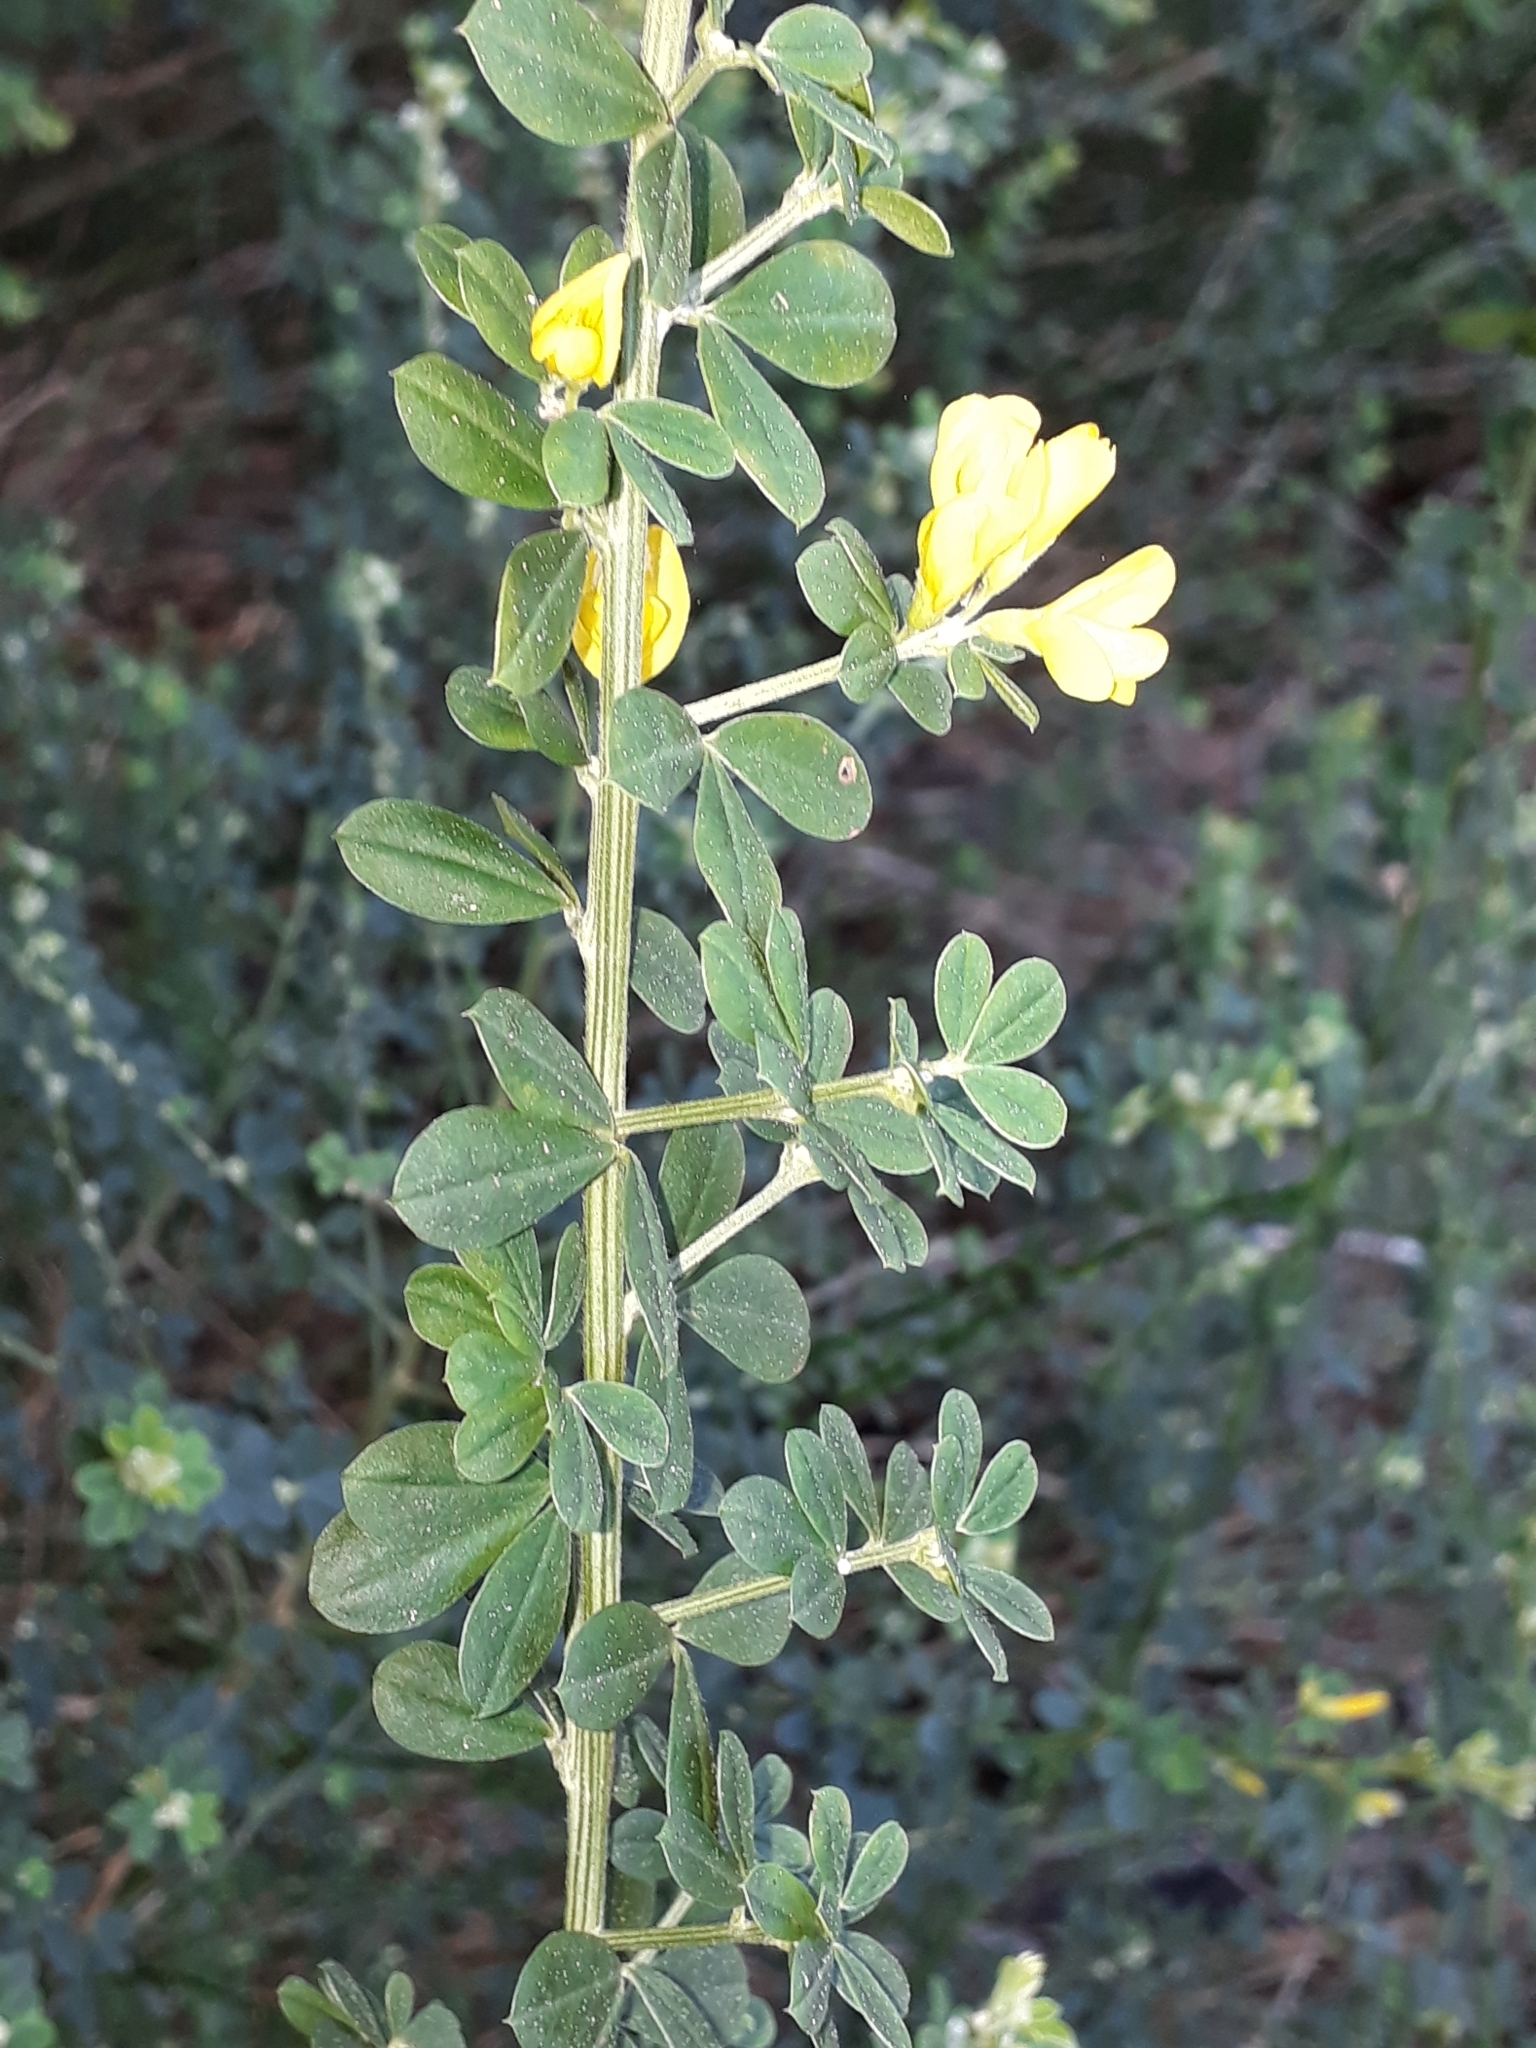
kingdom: Plantae
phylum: Tracheophyta
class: Magnoliopsida
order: Fabales
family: Fabaceae
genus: Genista
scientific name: Genista monspessulana
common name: Montpellier broom
